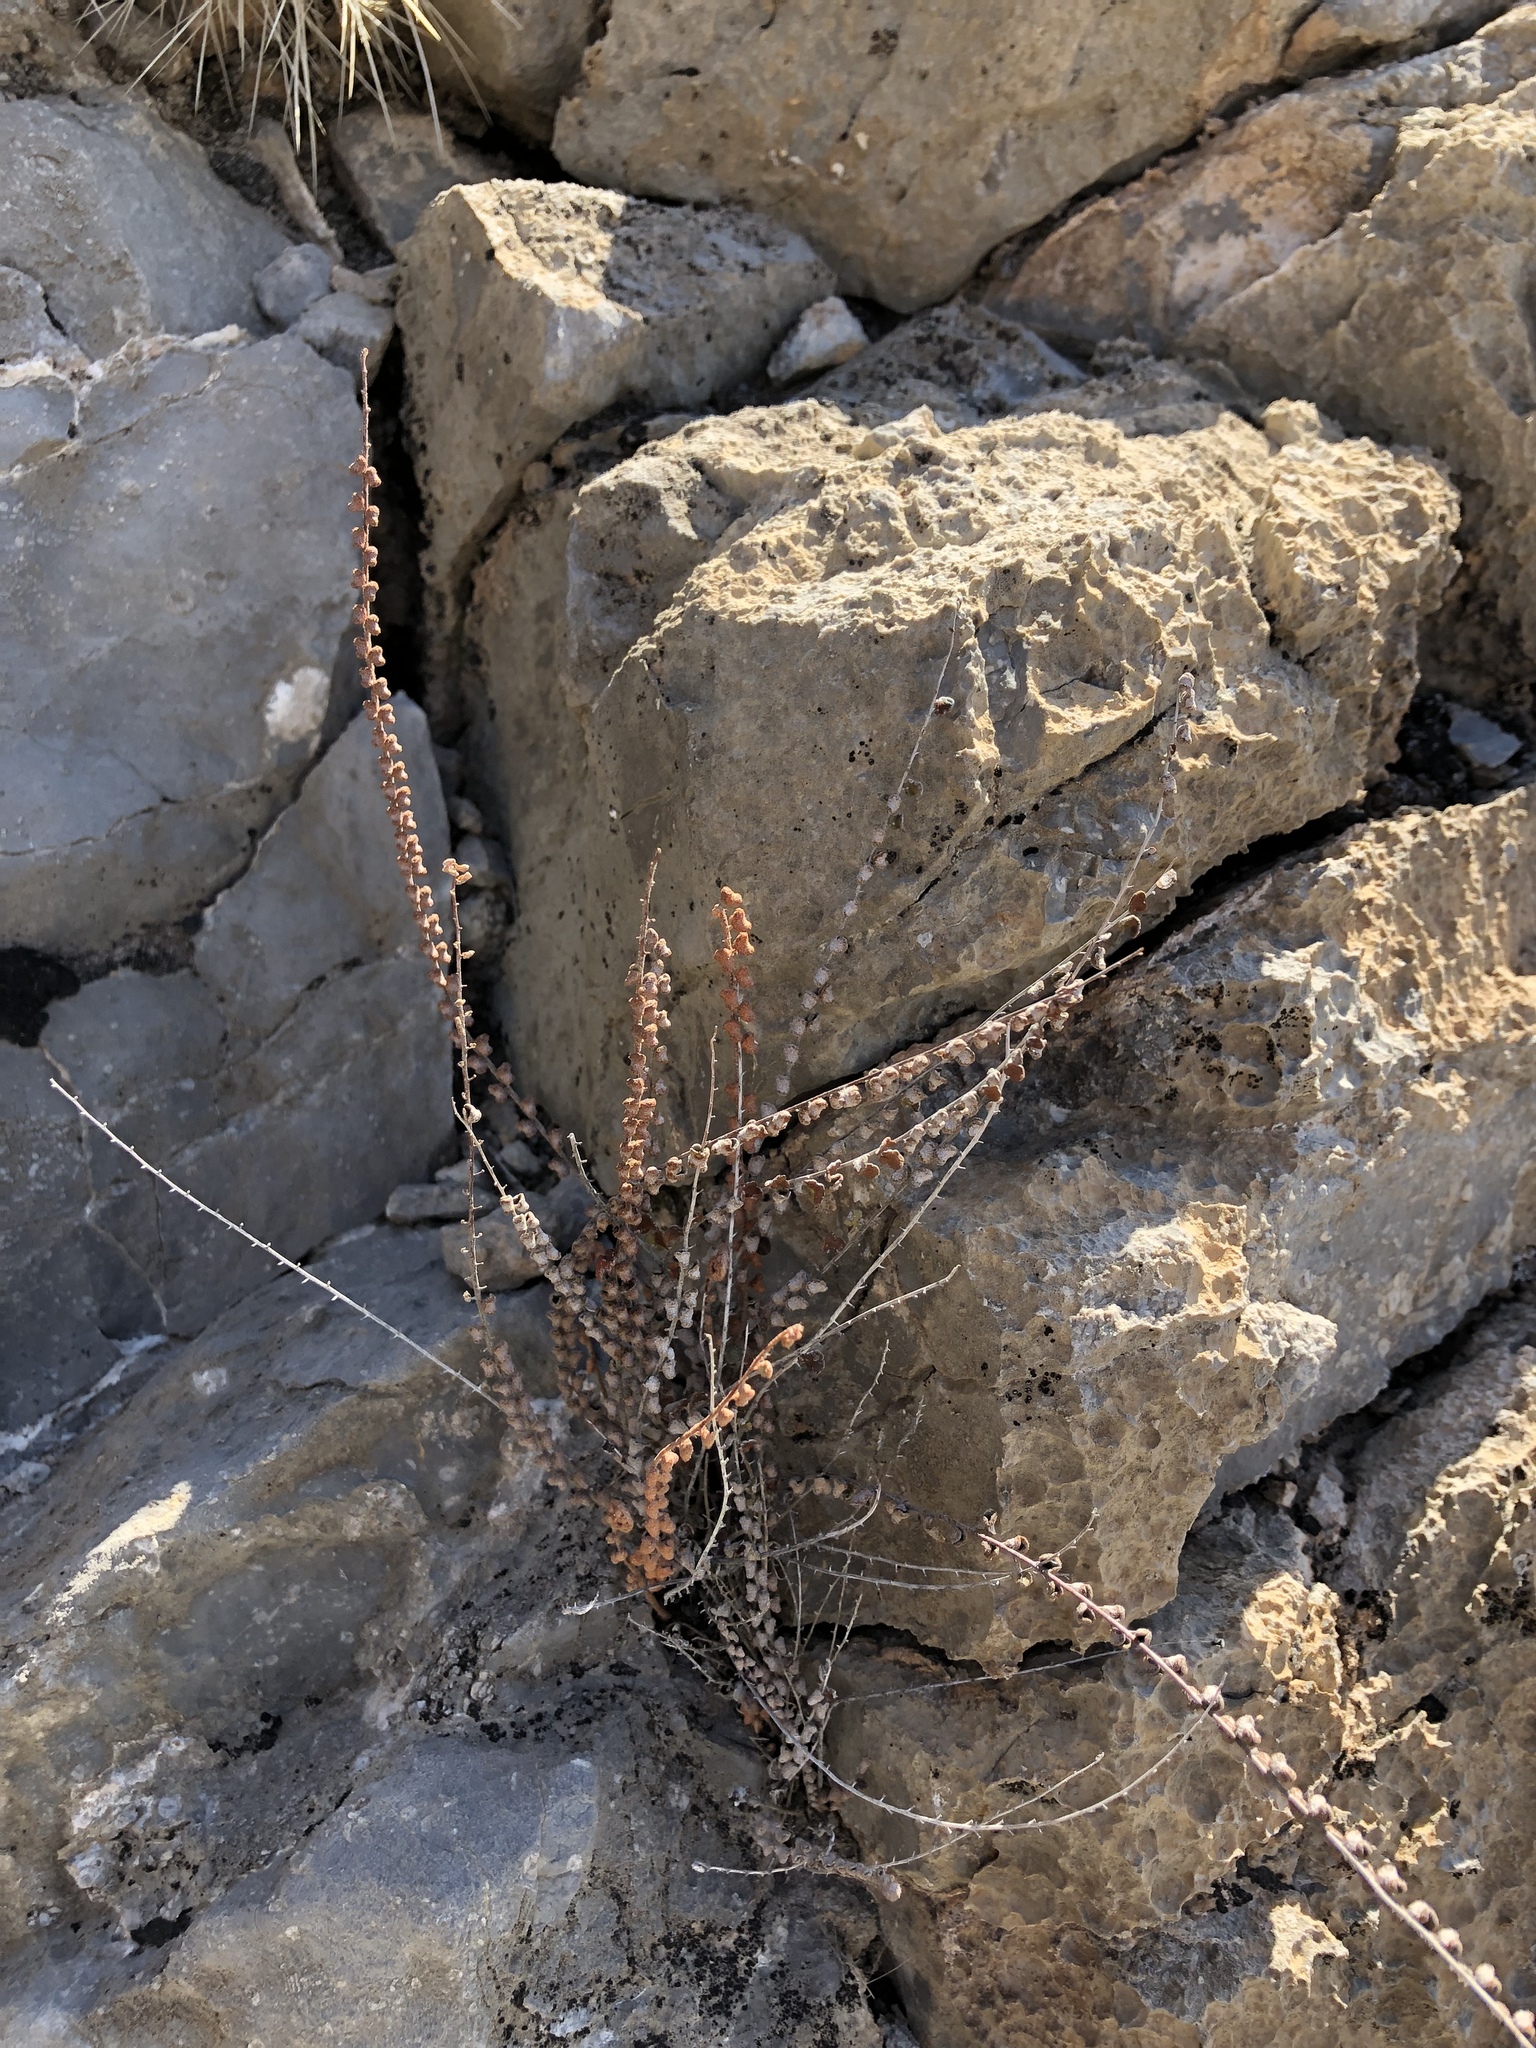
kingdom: Plantae
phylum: Tracheophyta
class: Polypodiopsida
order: Polypodiales
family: Pteridaceae
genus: Astrolepis
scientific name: Astrolepis cochisensis
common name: Scaly cloak fern
